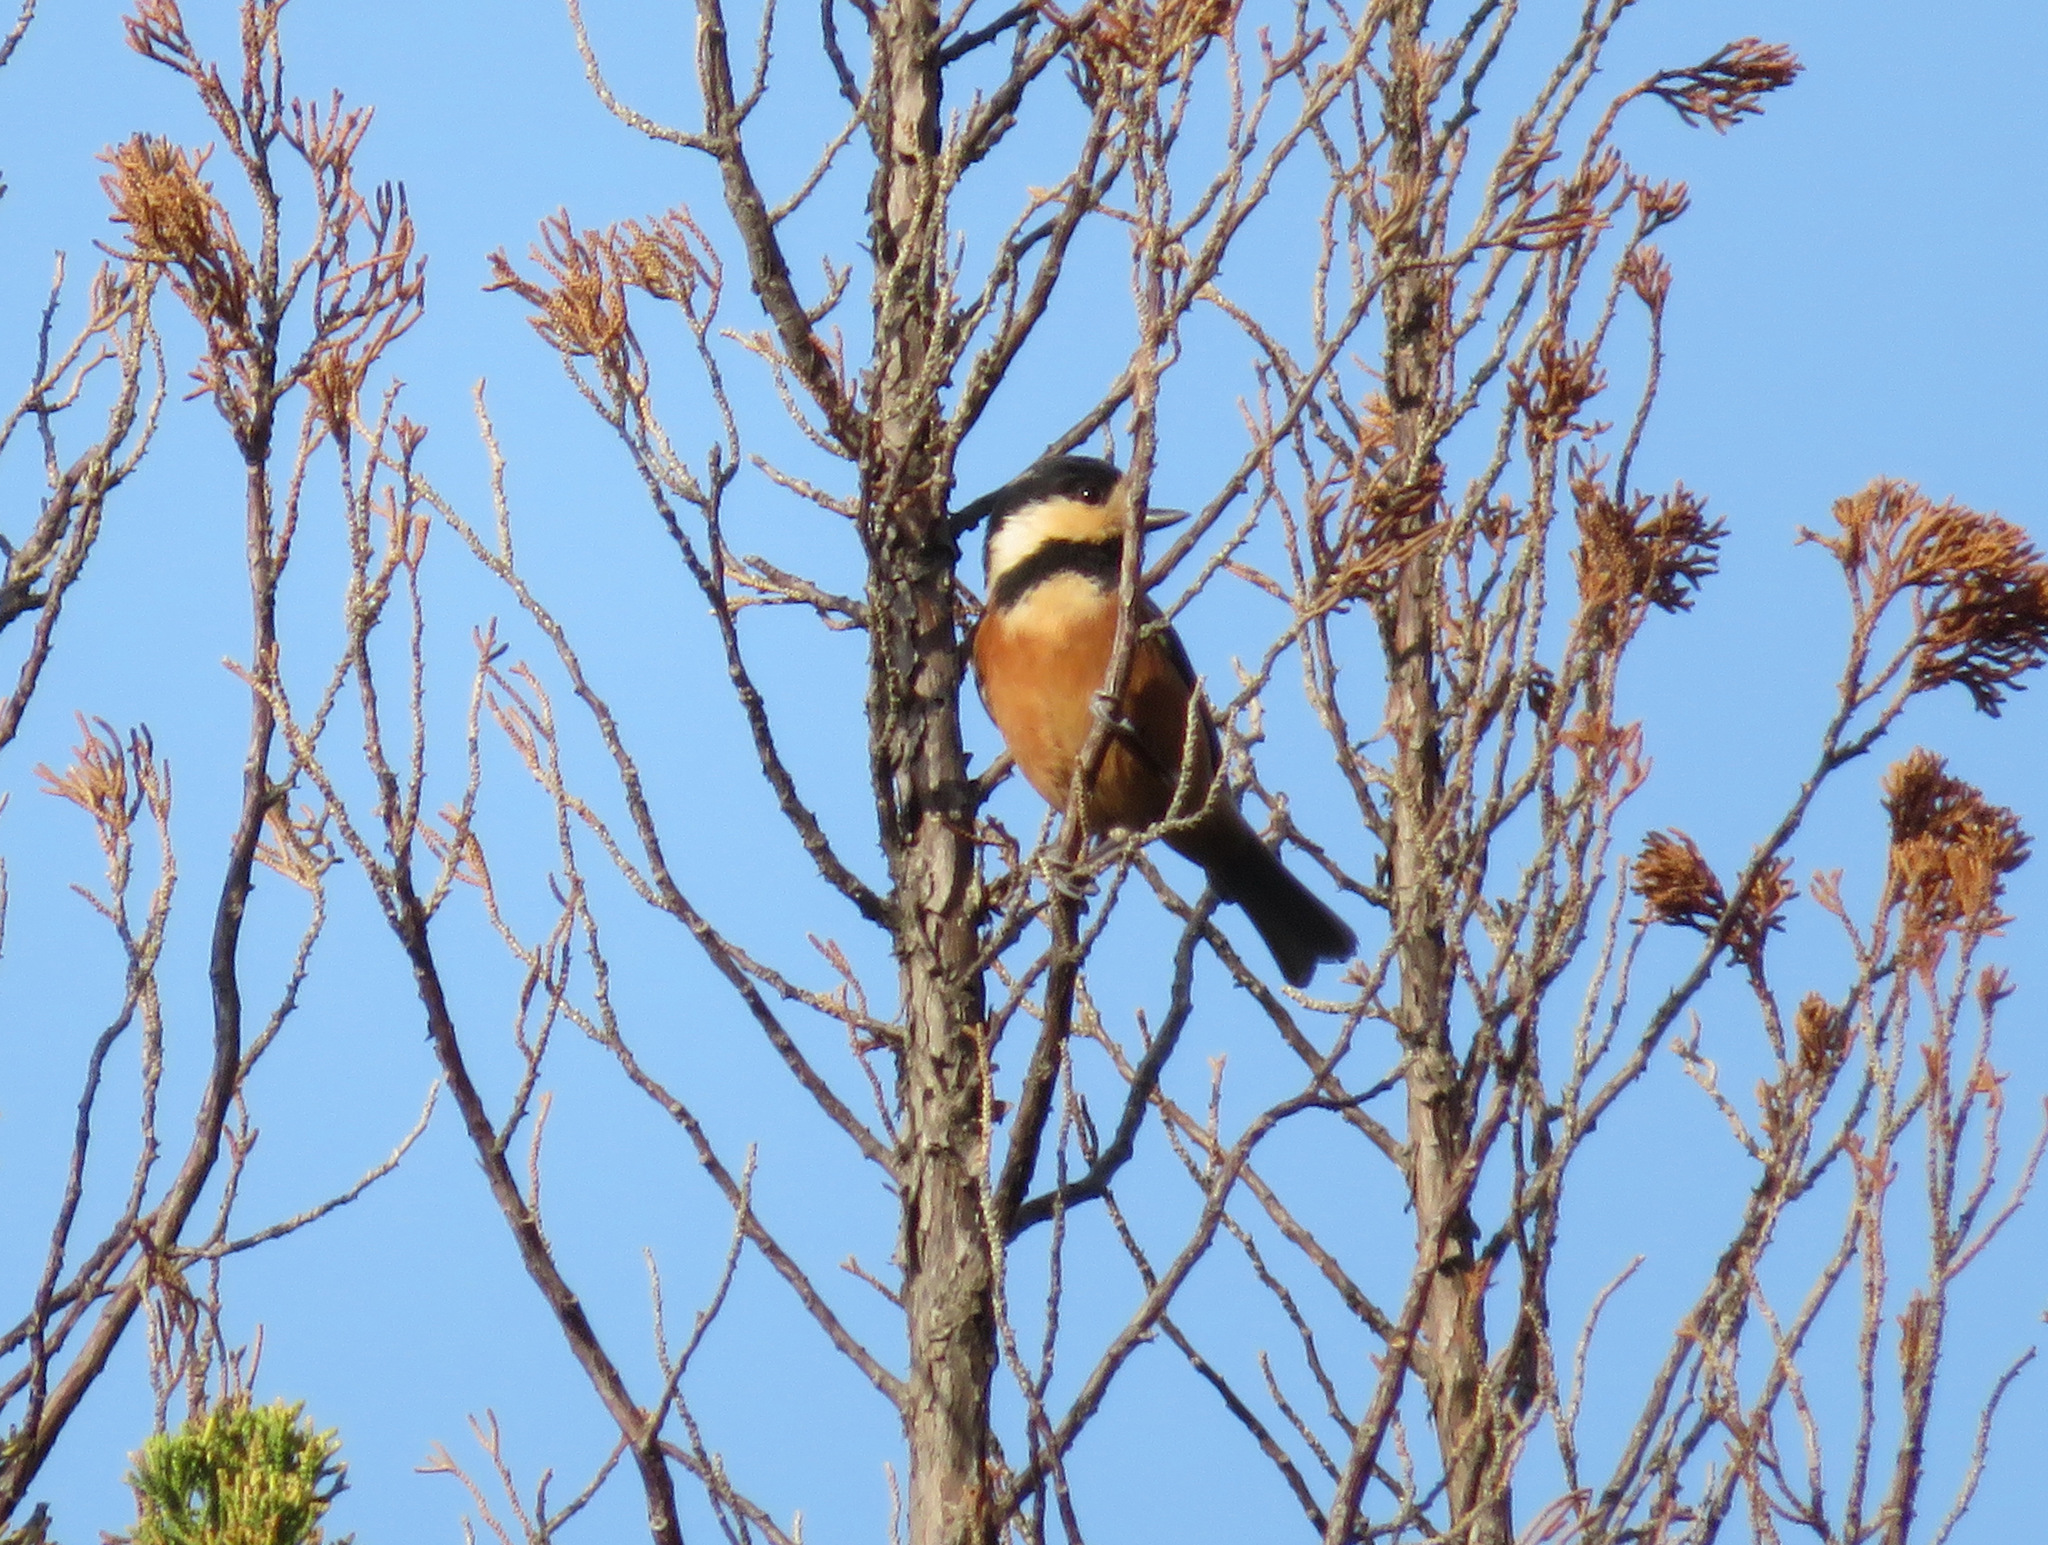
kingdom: Animalia
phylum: Chordata
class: Aves
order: Passeriformes
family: Paridae
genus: Poecile
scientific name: Poecile varius
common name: Varied tit
